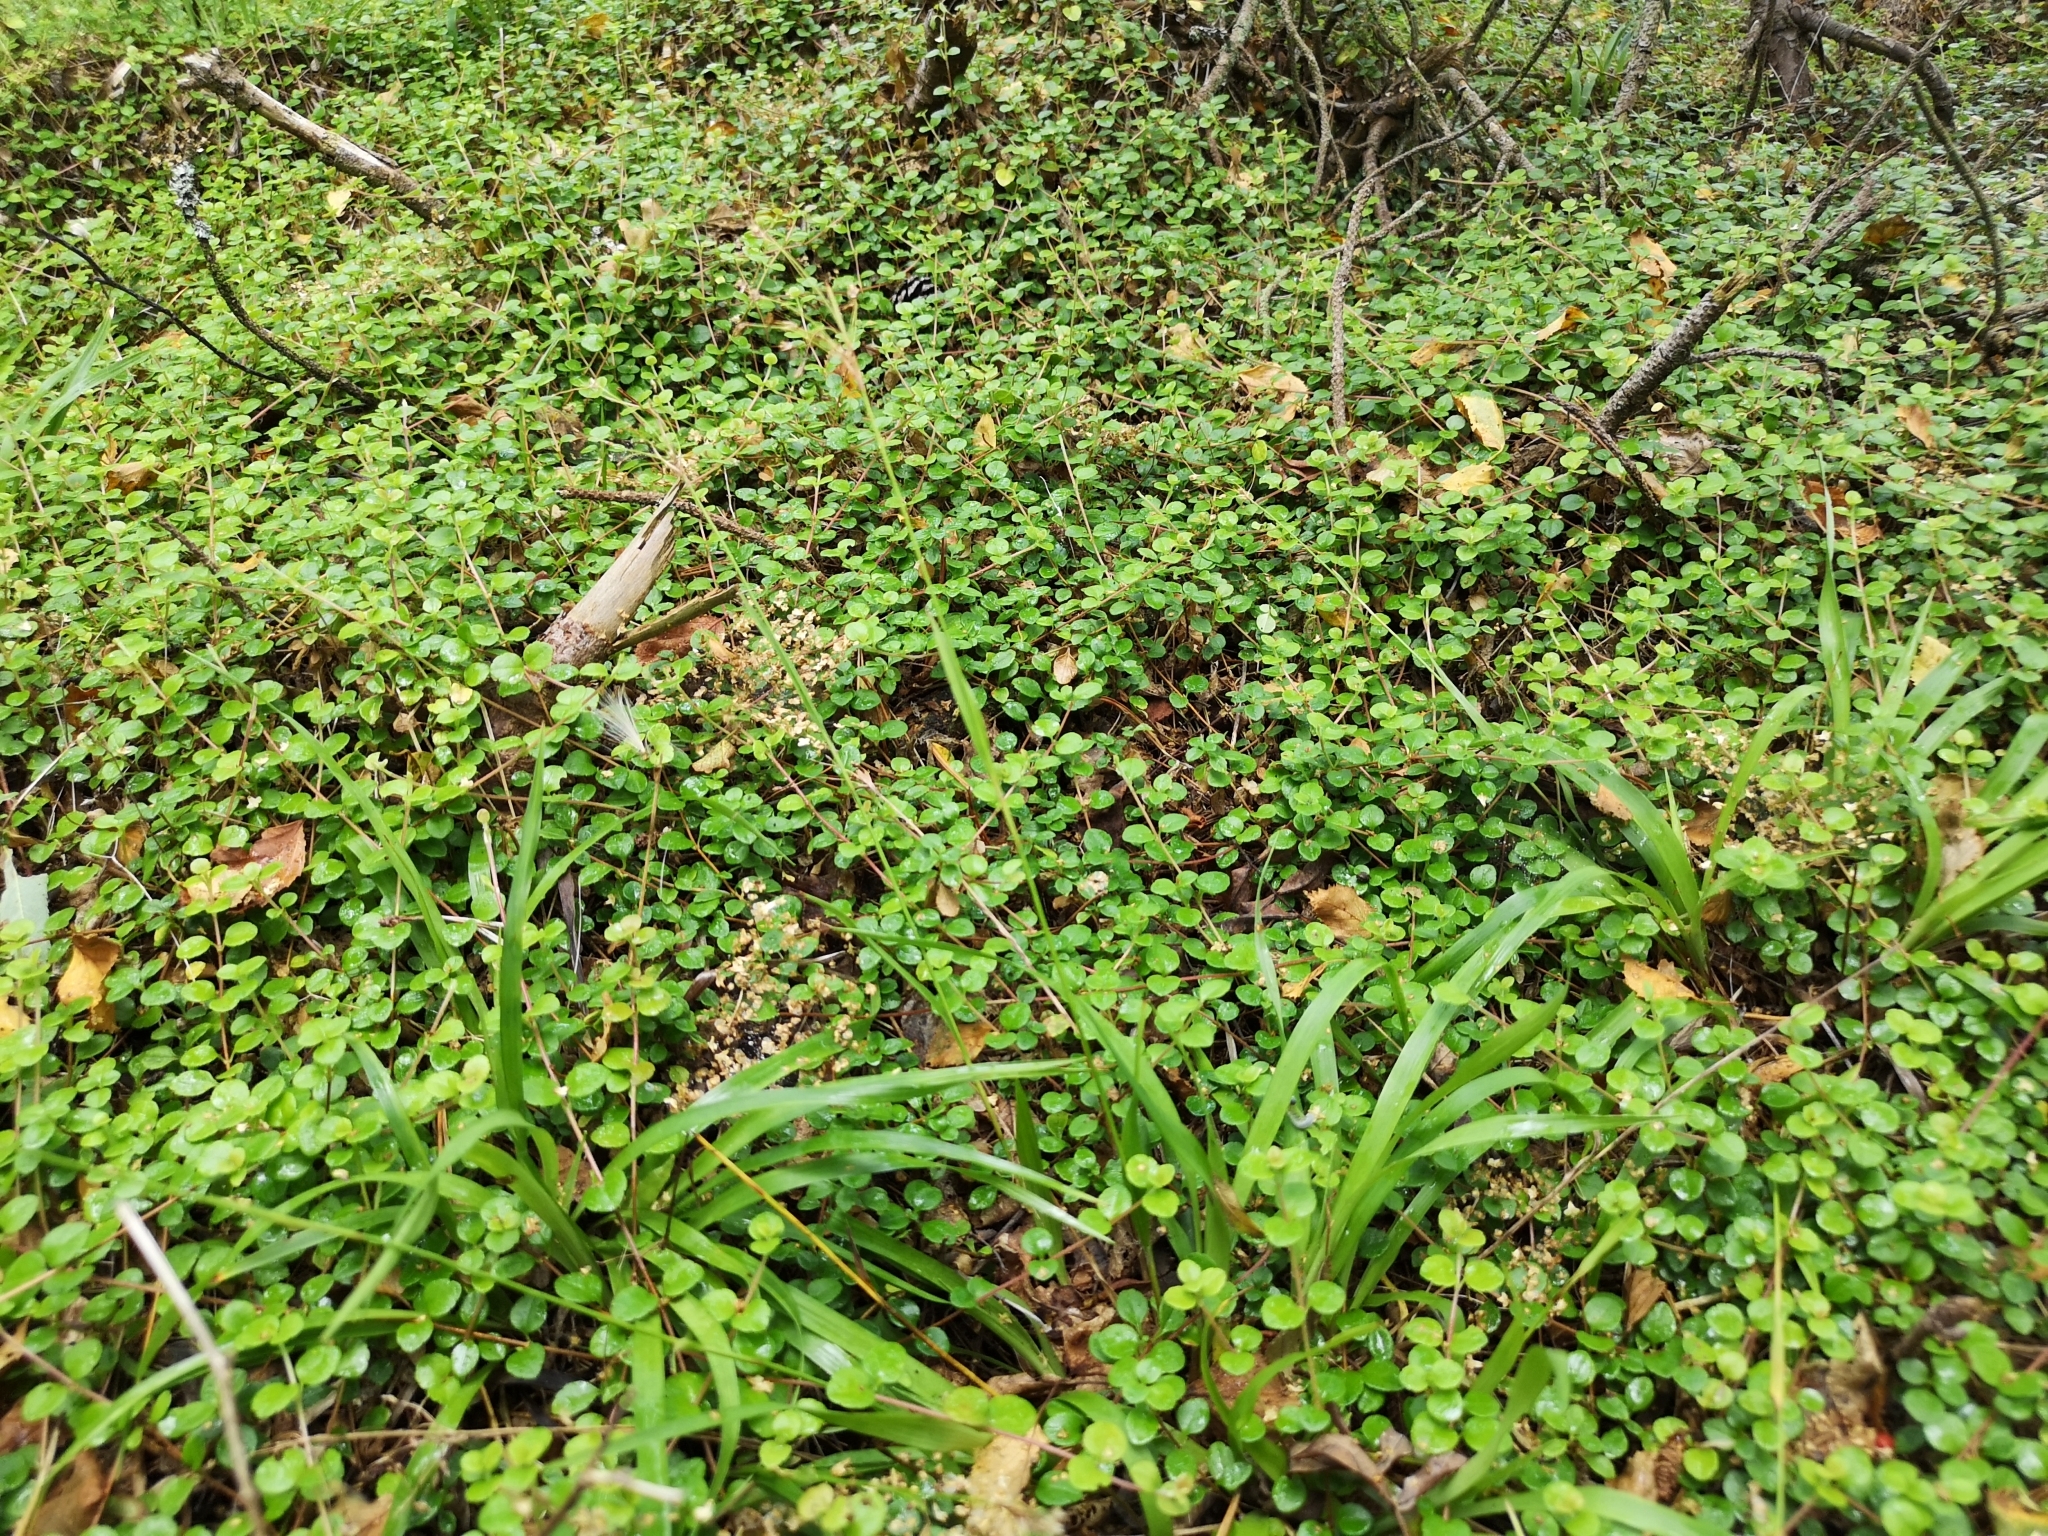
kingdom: Plantae
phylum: Tracheophyta
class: Liliopsida
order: Poales
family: Juncaceae
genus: Luzula
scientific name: Luzula pilosa
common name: Hairy wood-rush
